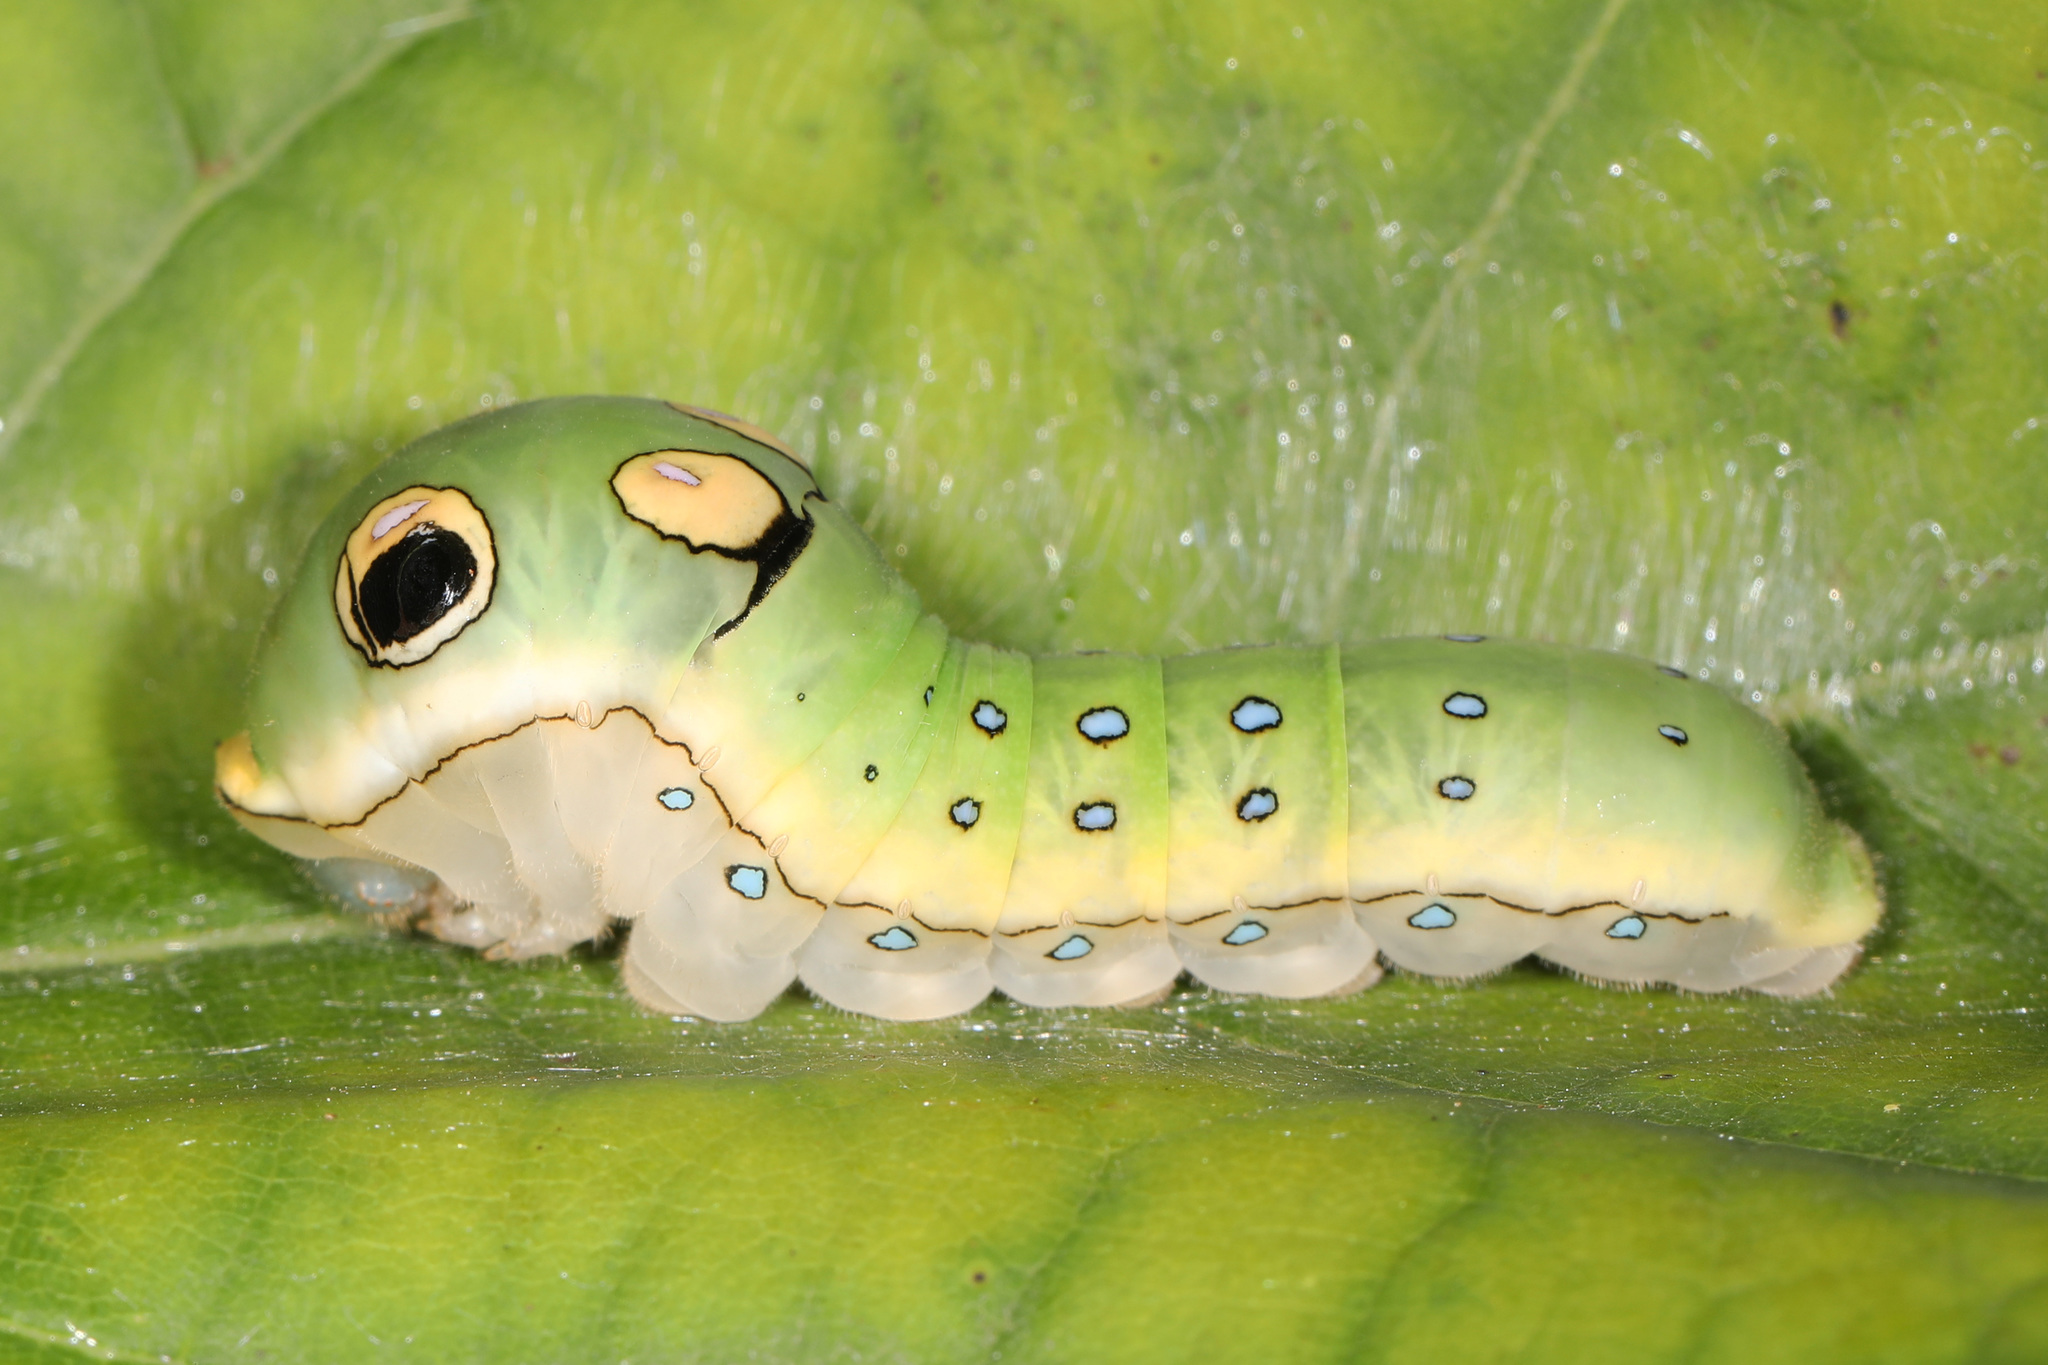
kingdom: Animalia
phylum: Arthropoda
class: Insecta
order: Lepidoptera
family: Papilionidae
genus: Papilio
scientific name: Papilio troilus
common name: Spicebush swallowtail
